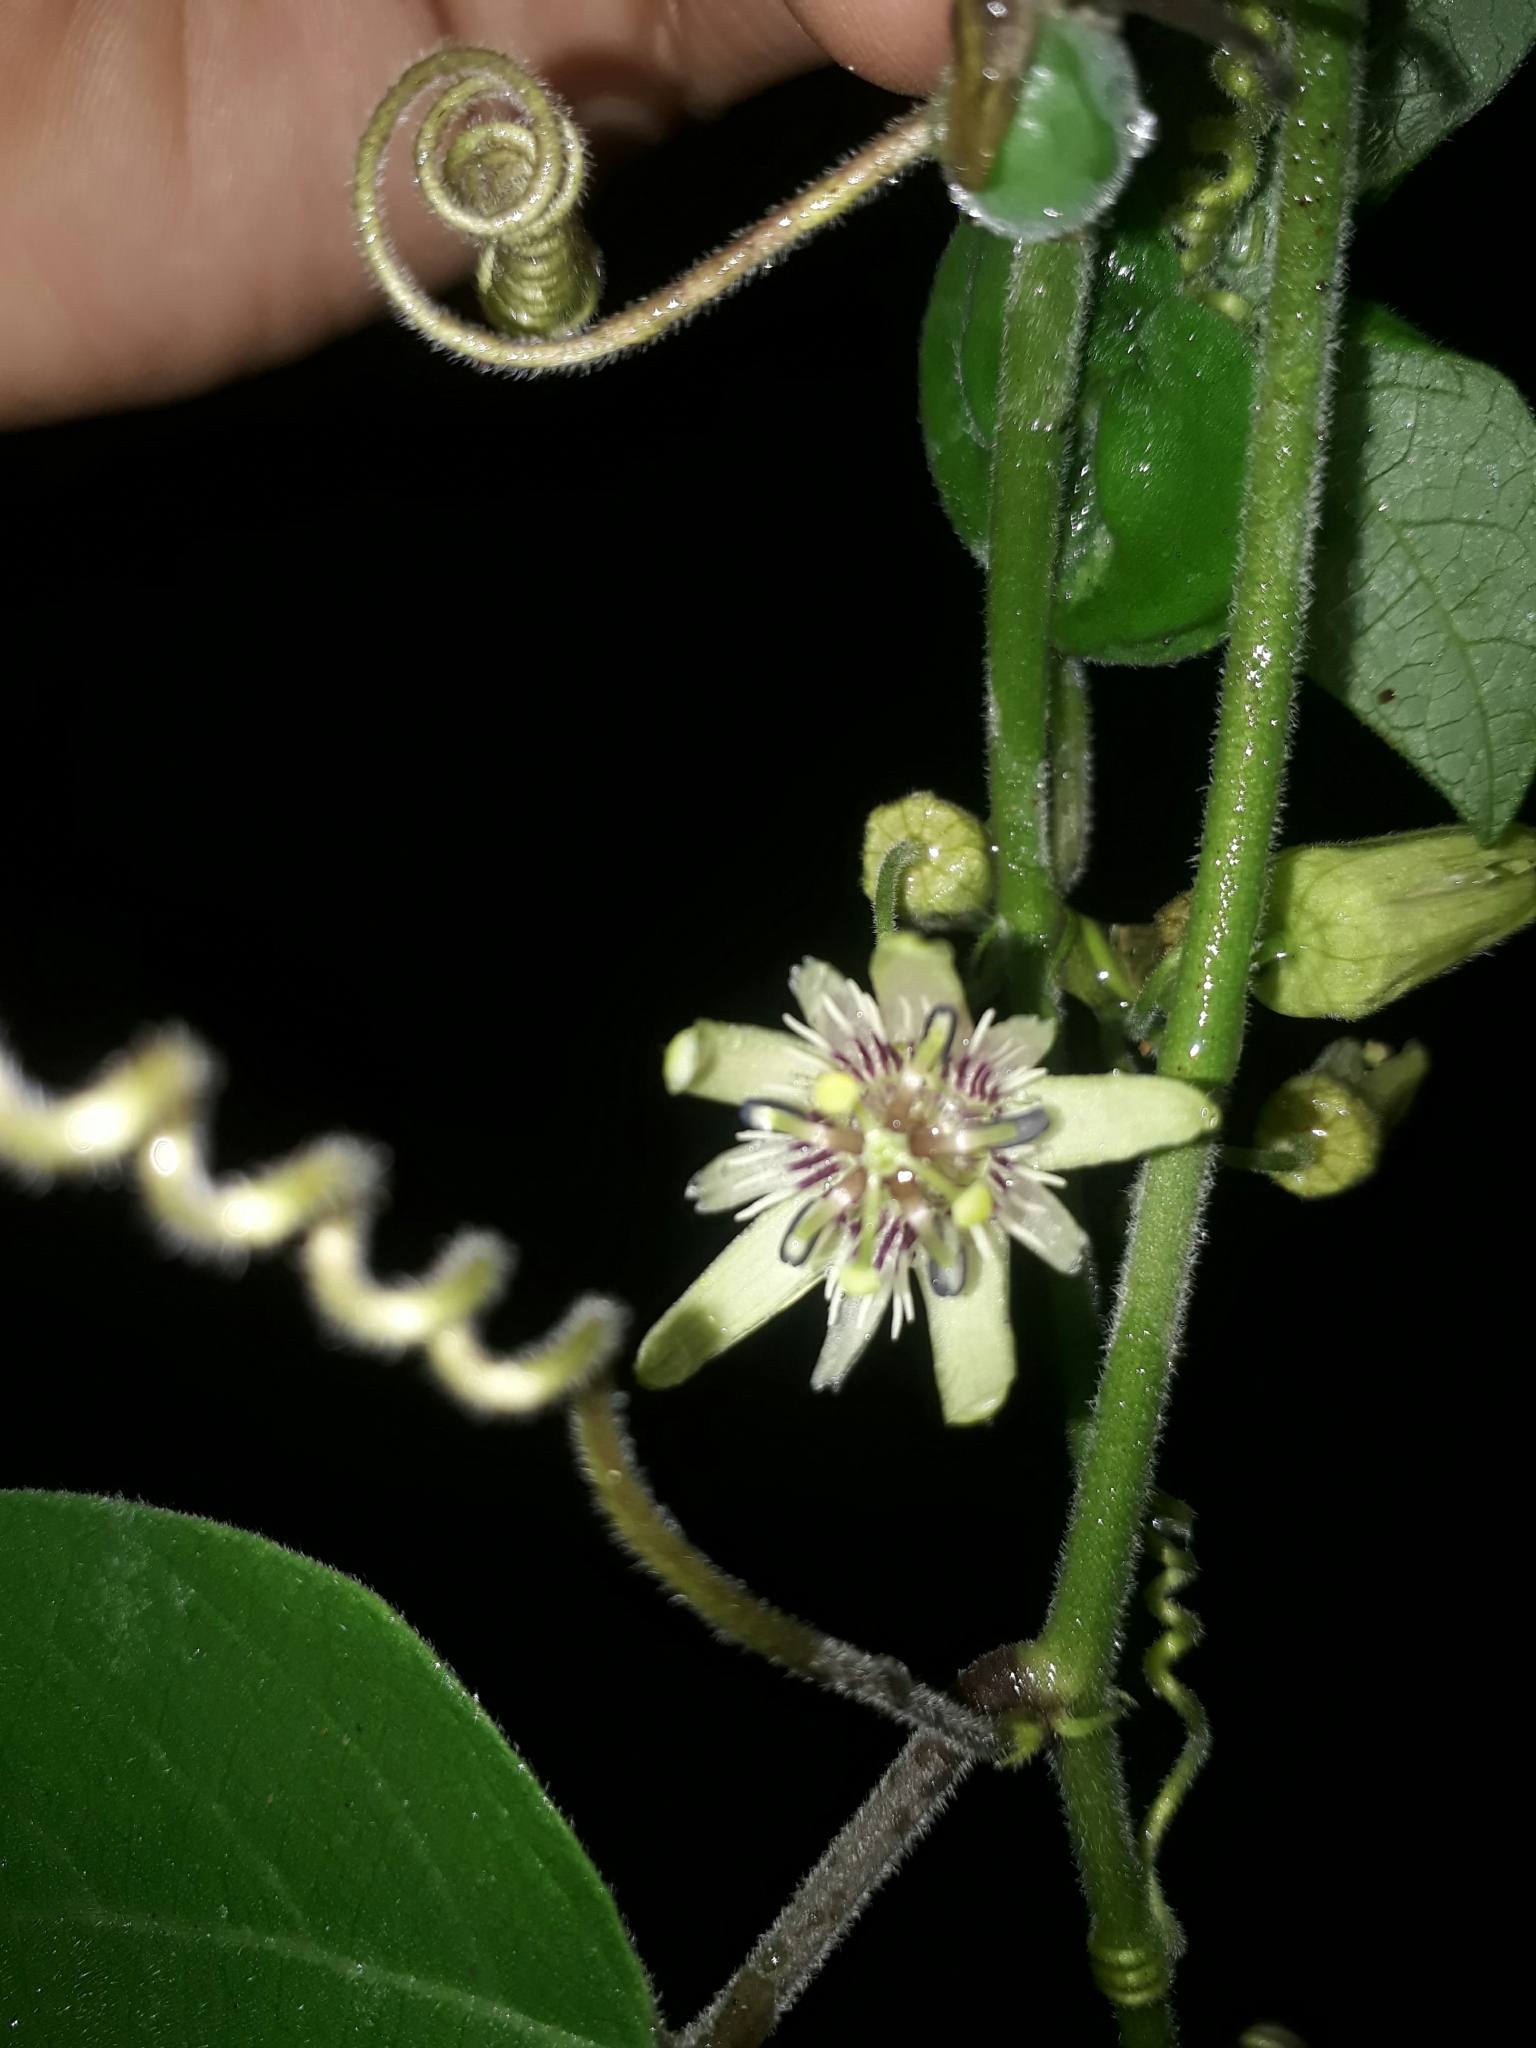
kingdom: Plantae
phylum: Tracheophyta
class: Magnoliopsida
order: Malpighiales
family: Passifloraceae
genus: Passiflora
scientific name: Passiflora sexflora
